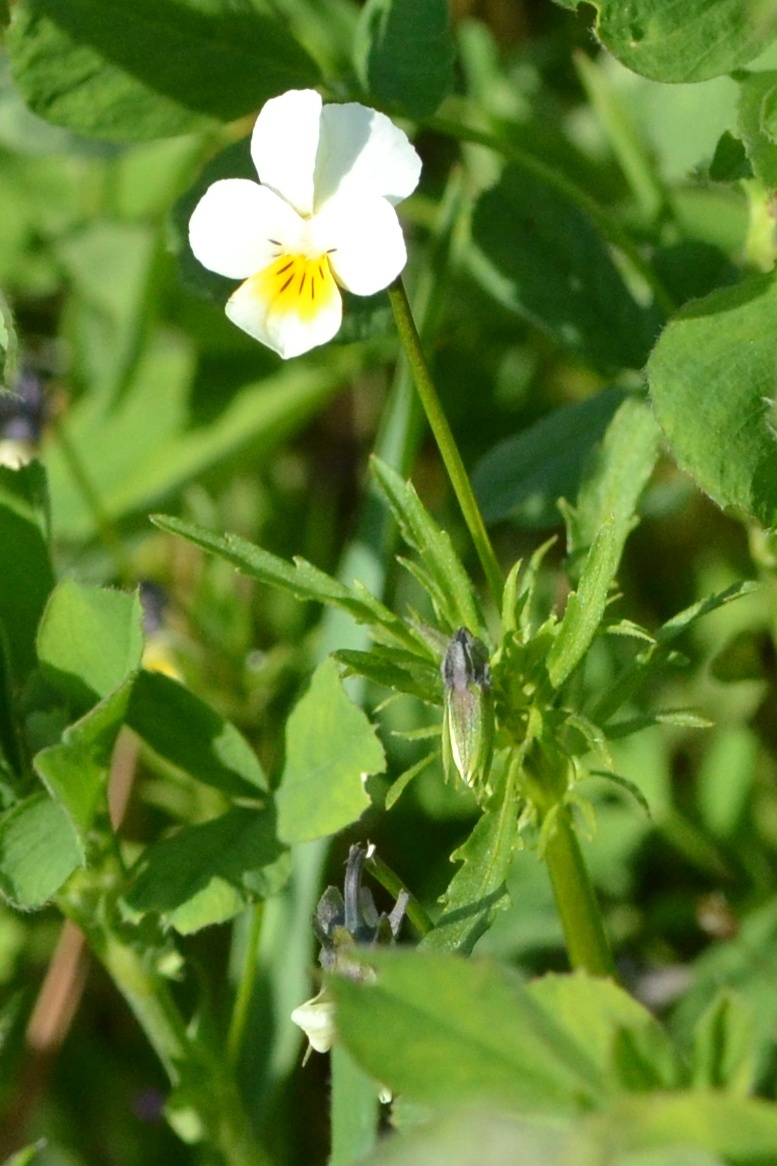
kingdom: Plantae
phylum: Tracheophyta
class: Magnoliopsida
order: Malpighiales
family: Violaceae
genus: Viola
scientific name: Viola arvensis
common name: Field pansy
